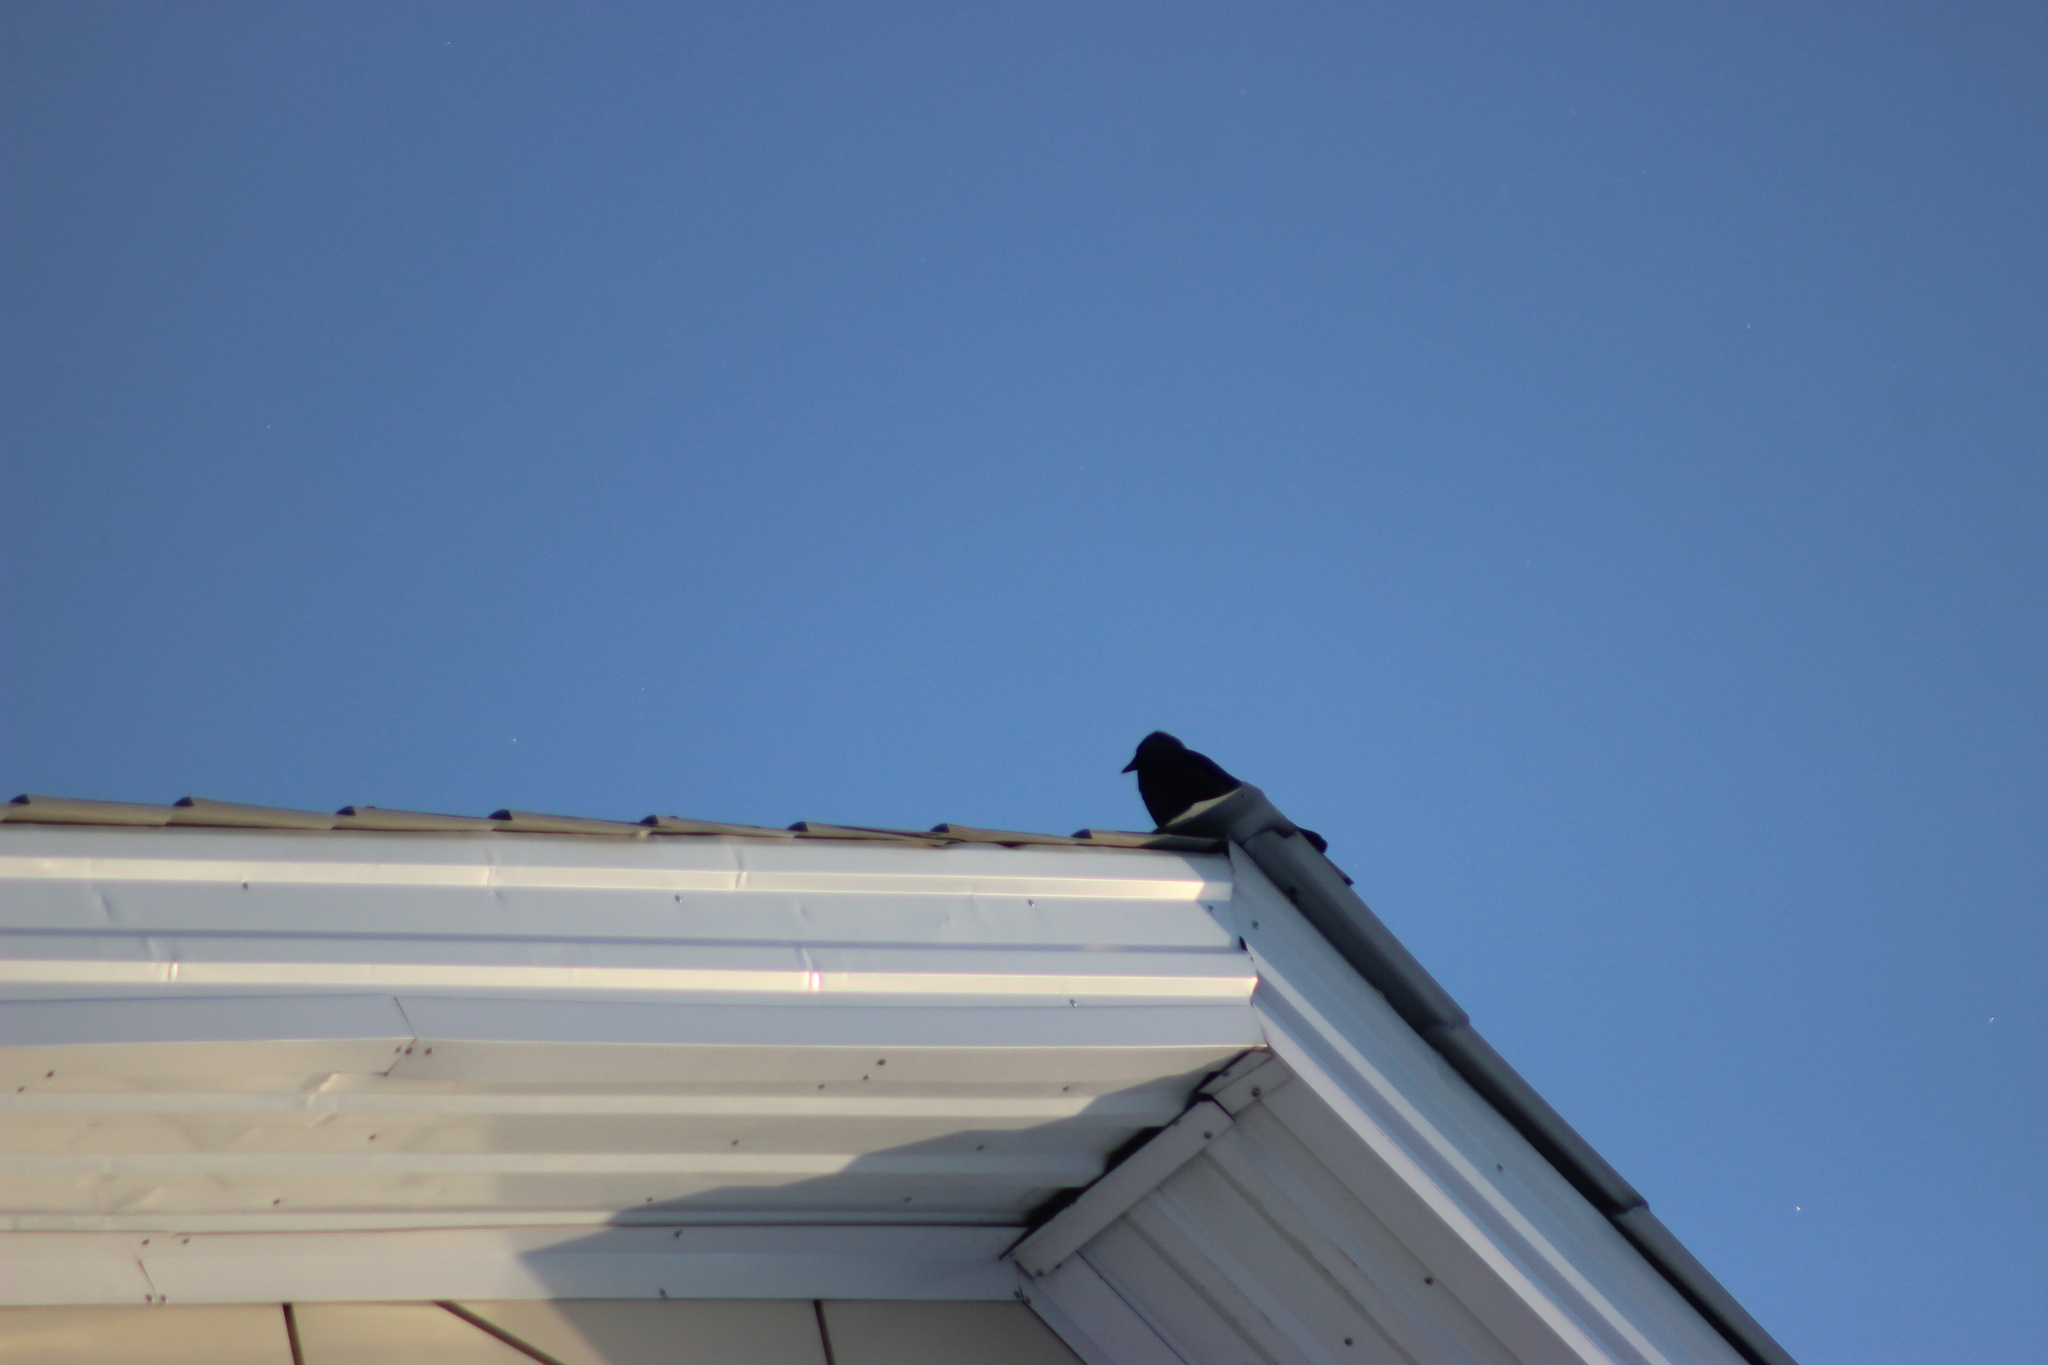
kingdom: Animalia
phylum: Chordata
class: Aves
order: Passeriformes
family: Corvidae
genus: Coloeus
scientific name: Coloeus monedula
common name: Western jackdaw
